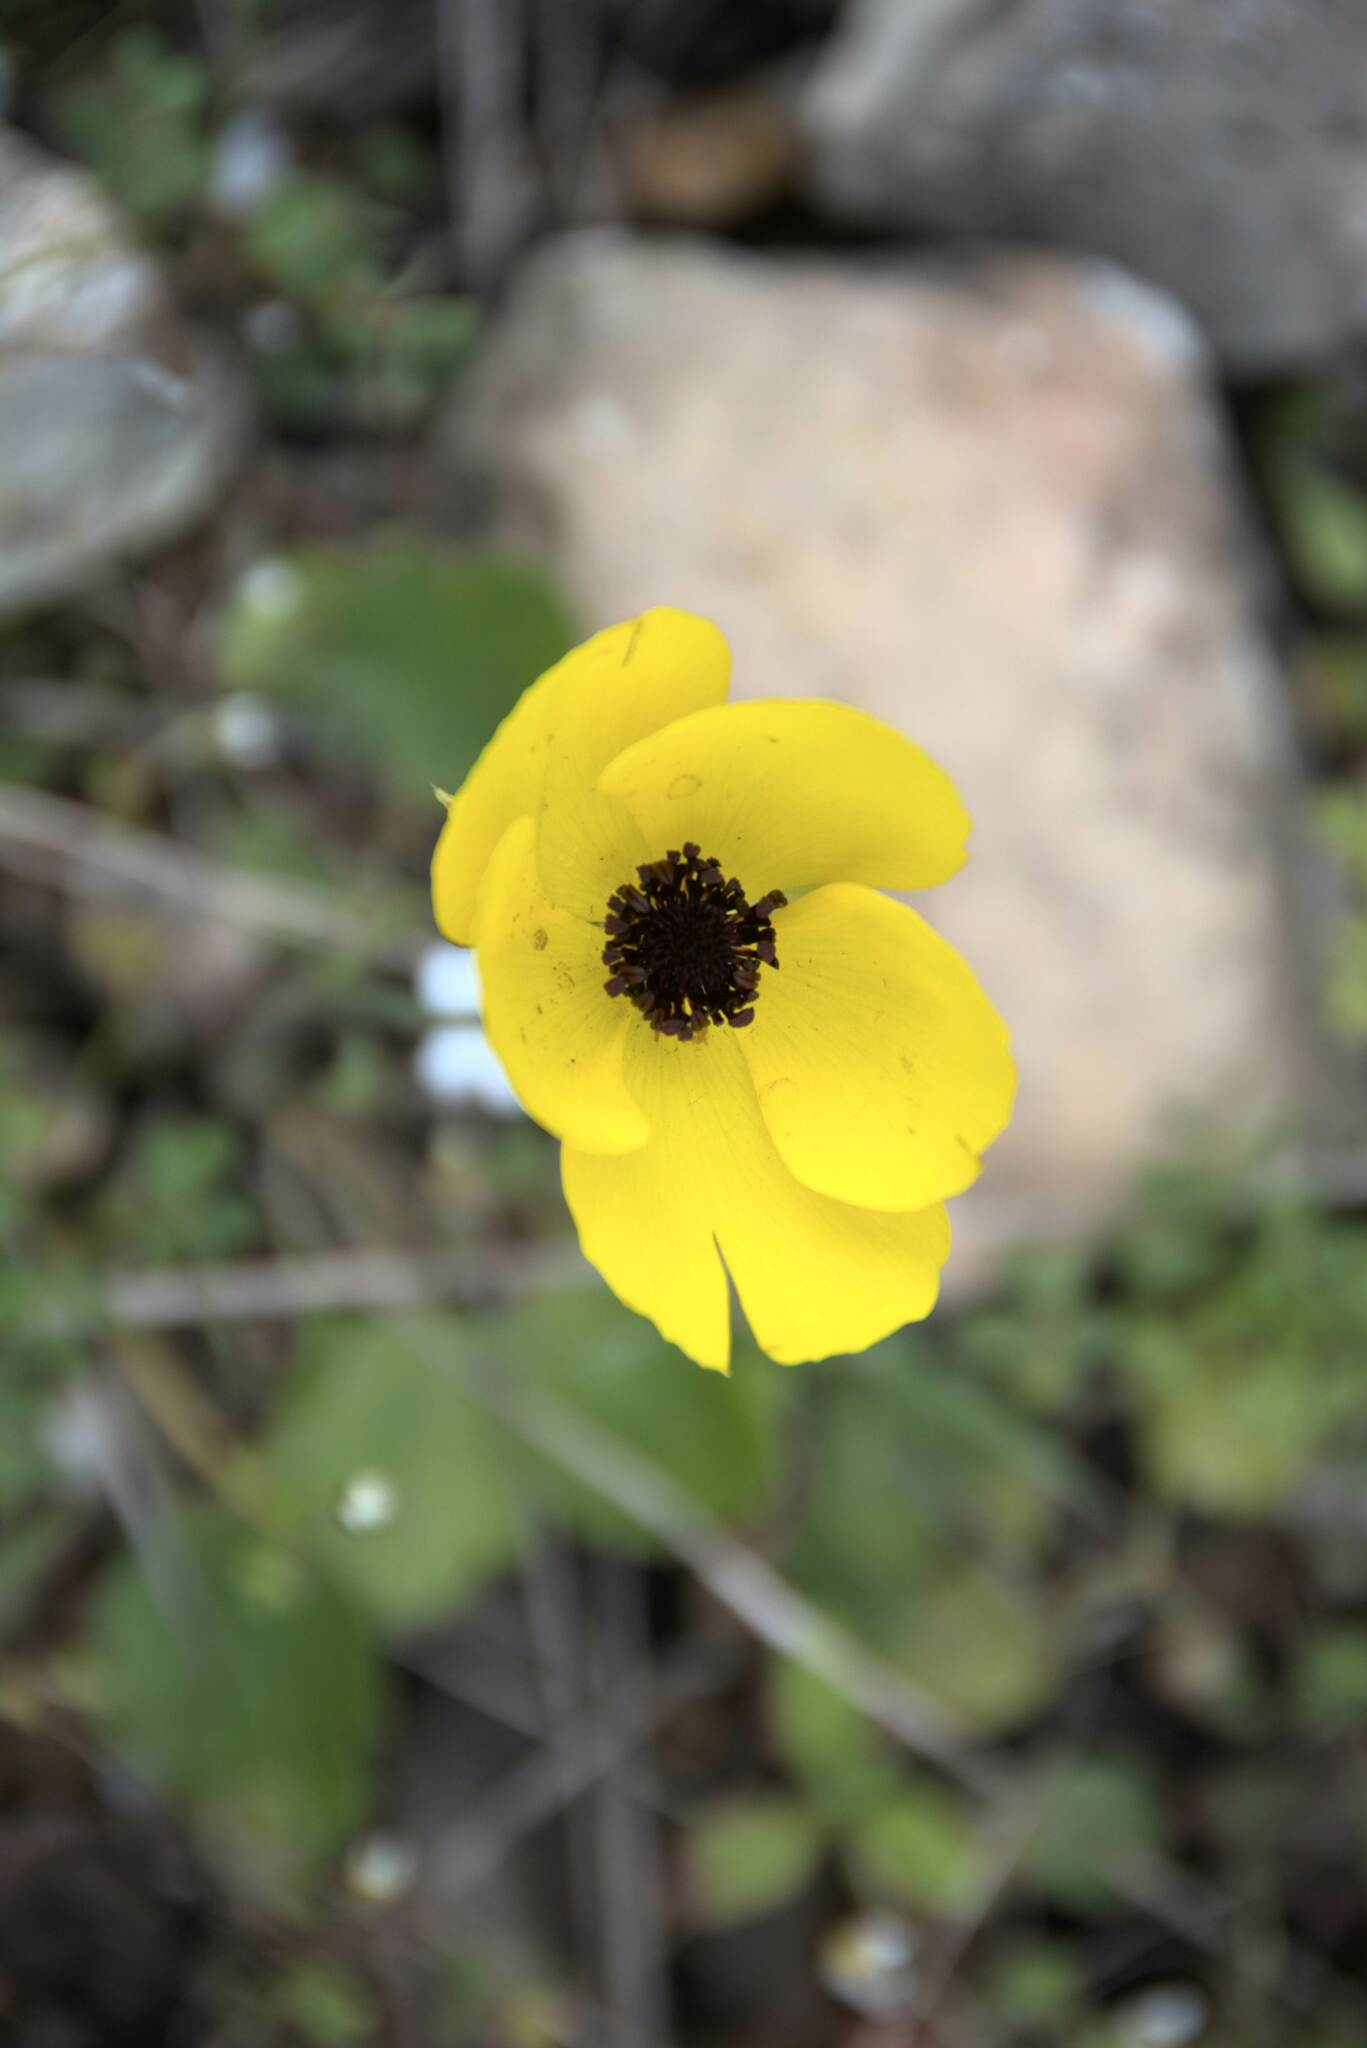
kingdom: Plantae
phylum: Tracheophyta
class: Magnoliopsida
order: Ranunculales
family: Ranunculaceae
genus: Ranunculus
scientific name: Ranunculus asiaticus
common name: Persian buttercup
